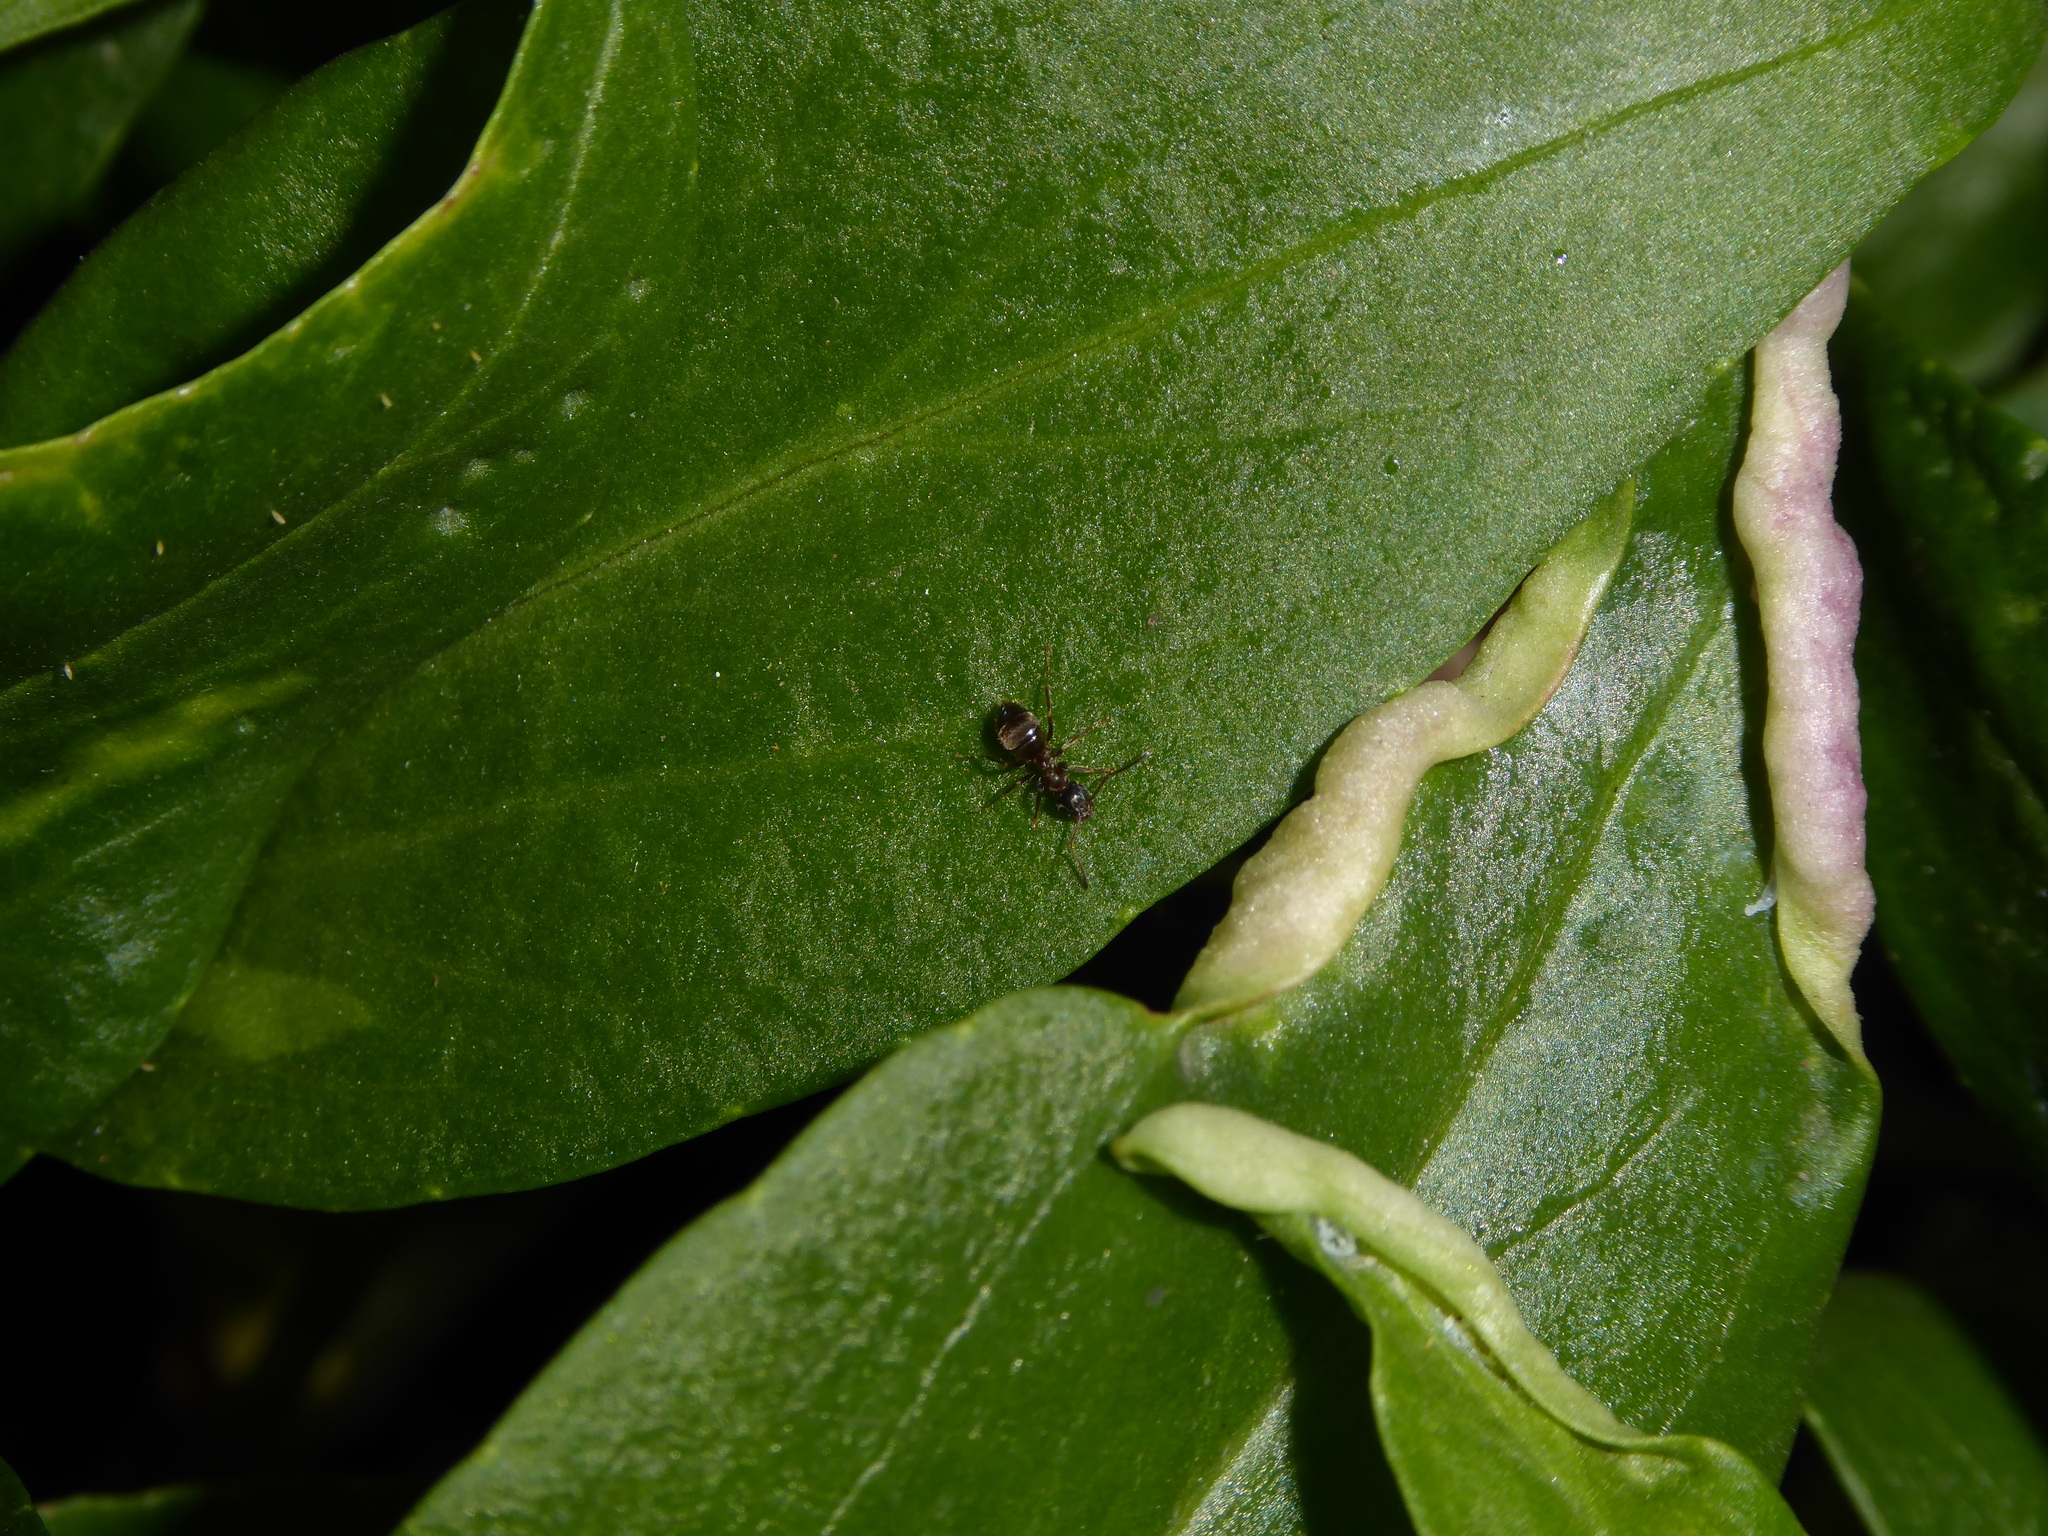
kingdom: Animalia
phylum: Arthropoda
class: Insecta
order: Hymenoptera
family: Formicidae
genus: Lasius
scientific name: Lasius
